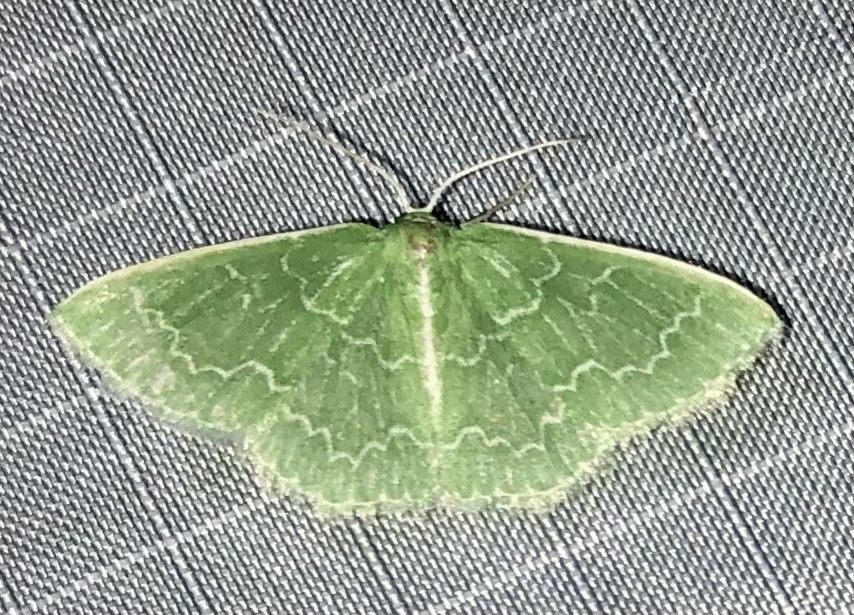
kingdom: Animalia
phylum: Arthropoda
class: Insecta
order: Lepidoptera
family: Geometridae
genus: Synchlora
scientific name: Synchlora frondaria
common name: Southern emerald
